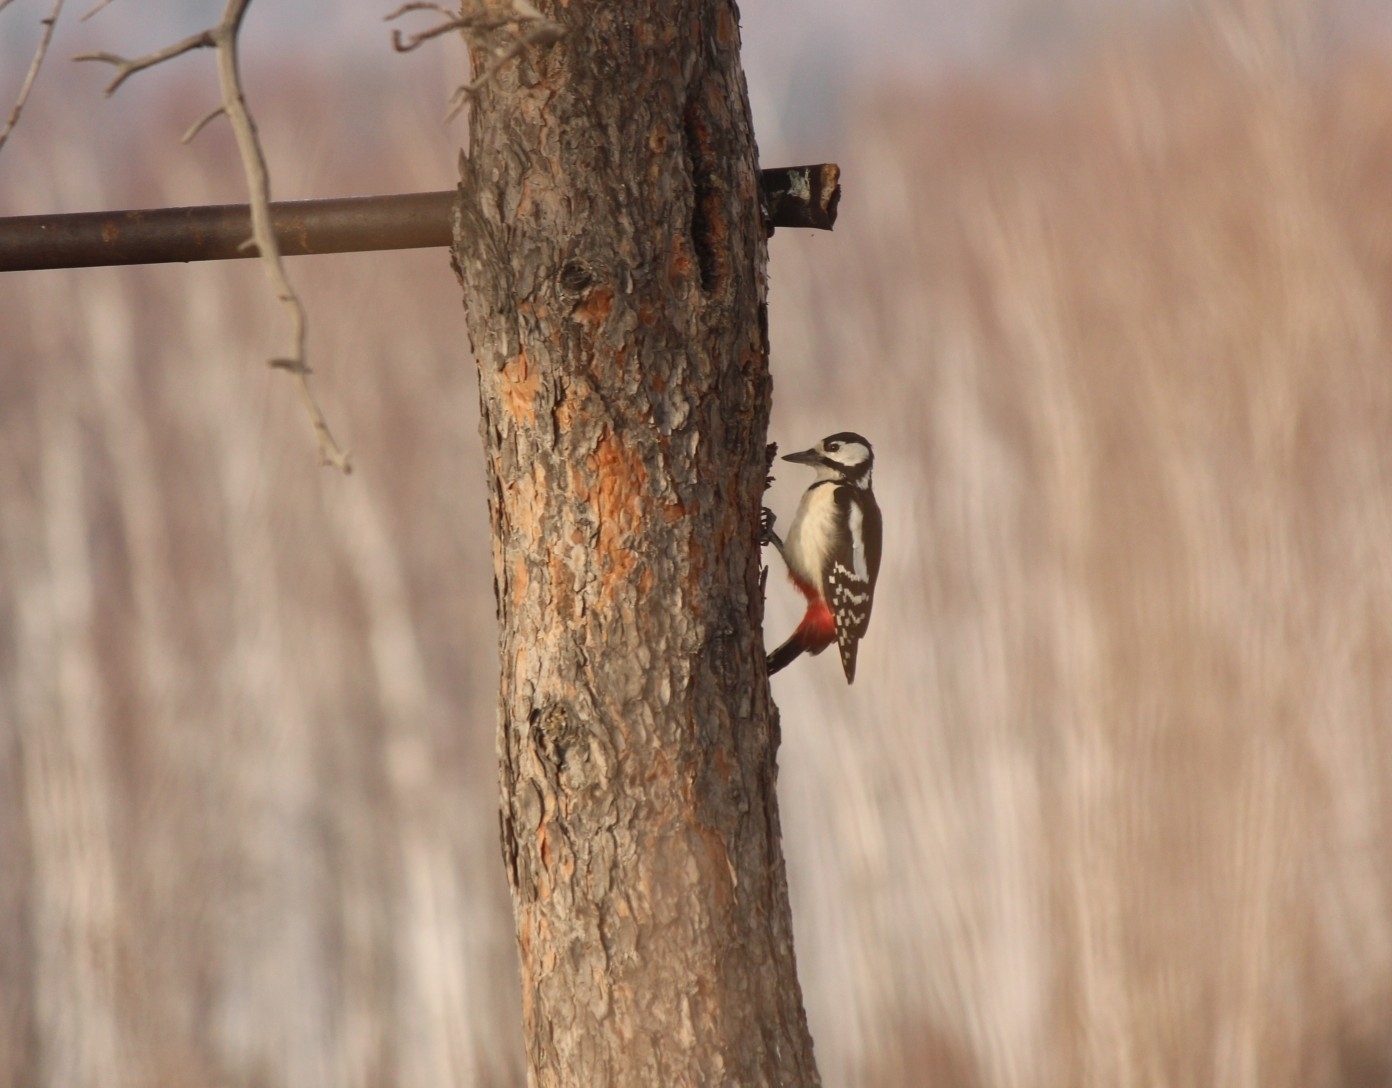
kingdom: Animalia
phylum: Chordata
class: Aves
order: Piciformes
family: Picidae
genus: Dendrocopos
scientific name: Dendrocopos major
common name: Great spotted woodpecker
